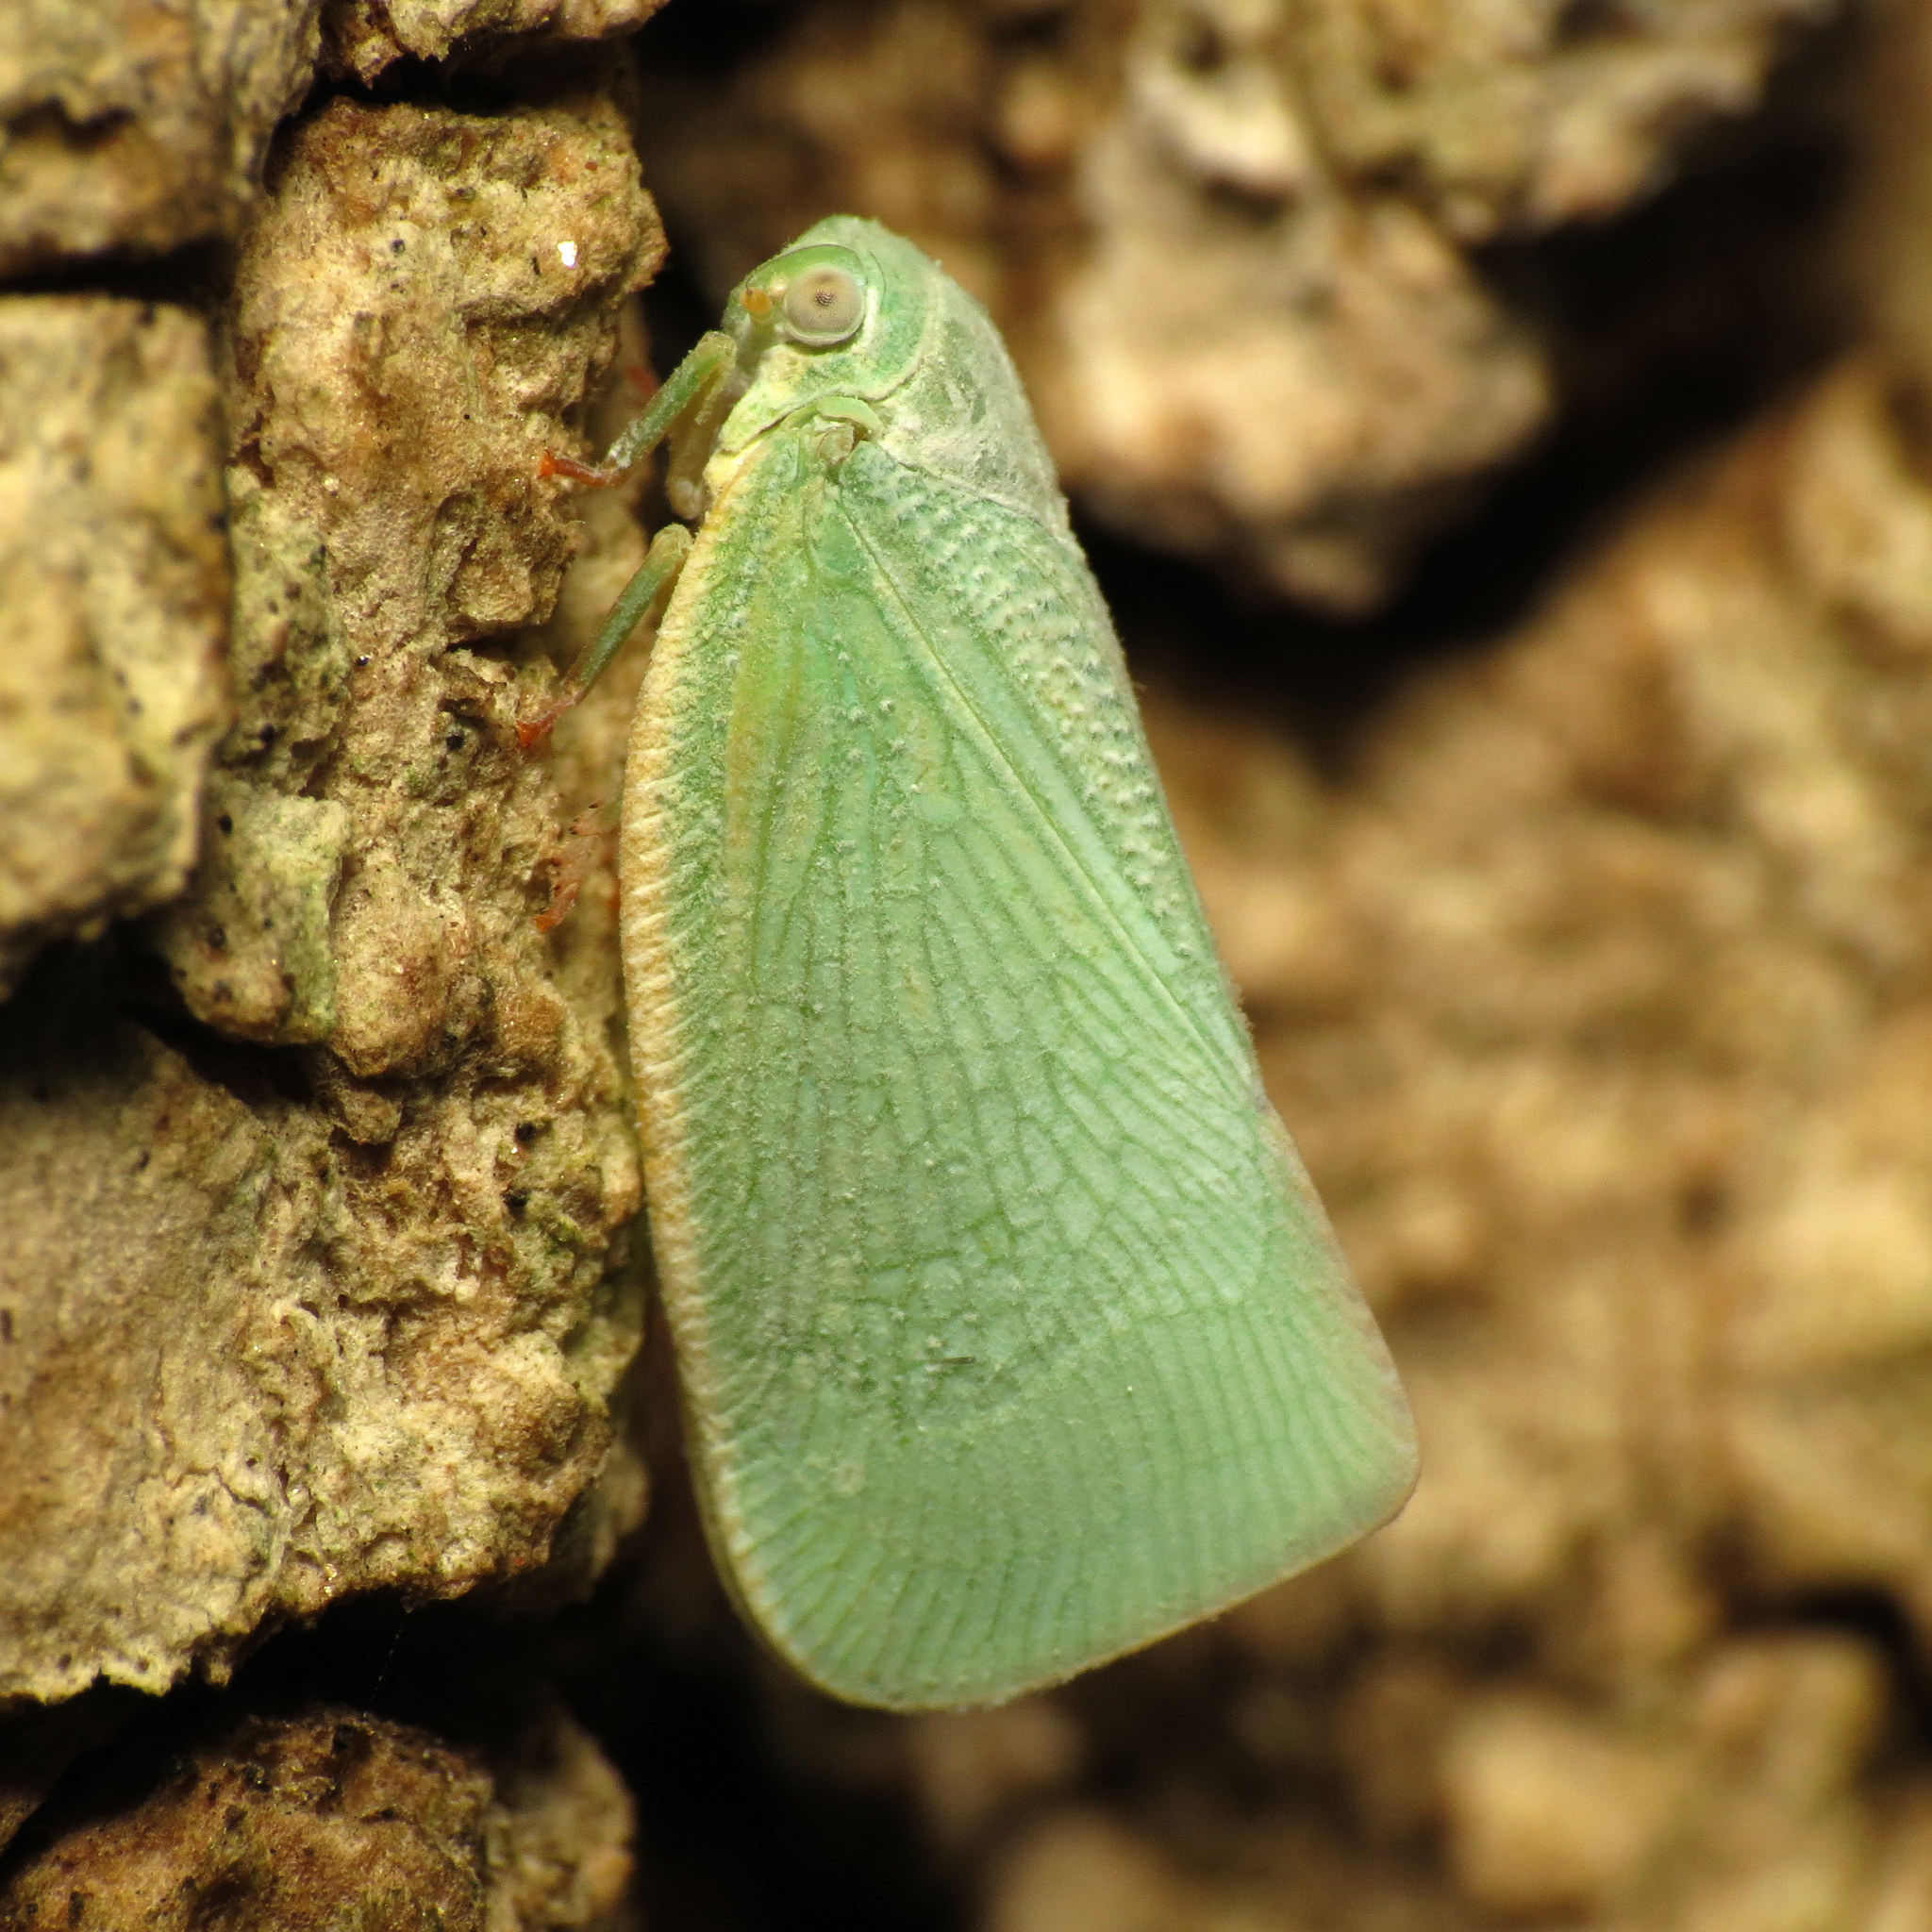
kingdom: Animalia
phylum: Arthropoda
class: Insecta
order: Hemiptera
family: Flatidae
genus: Flatormenis
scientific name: Flatormenis proxima
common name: Northern flatid planthopper
